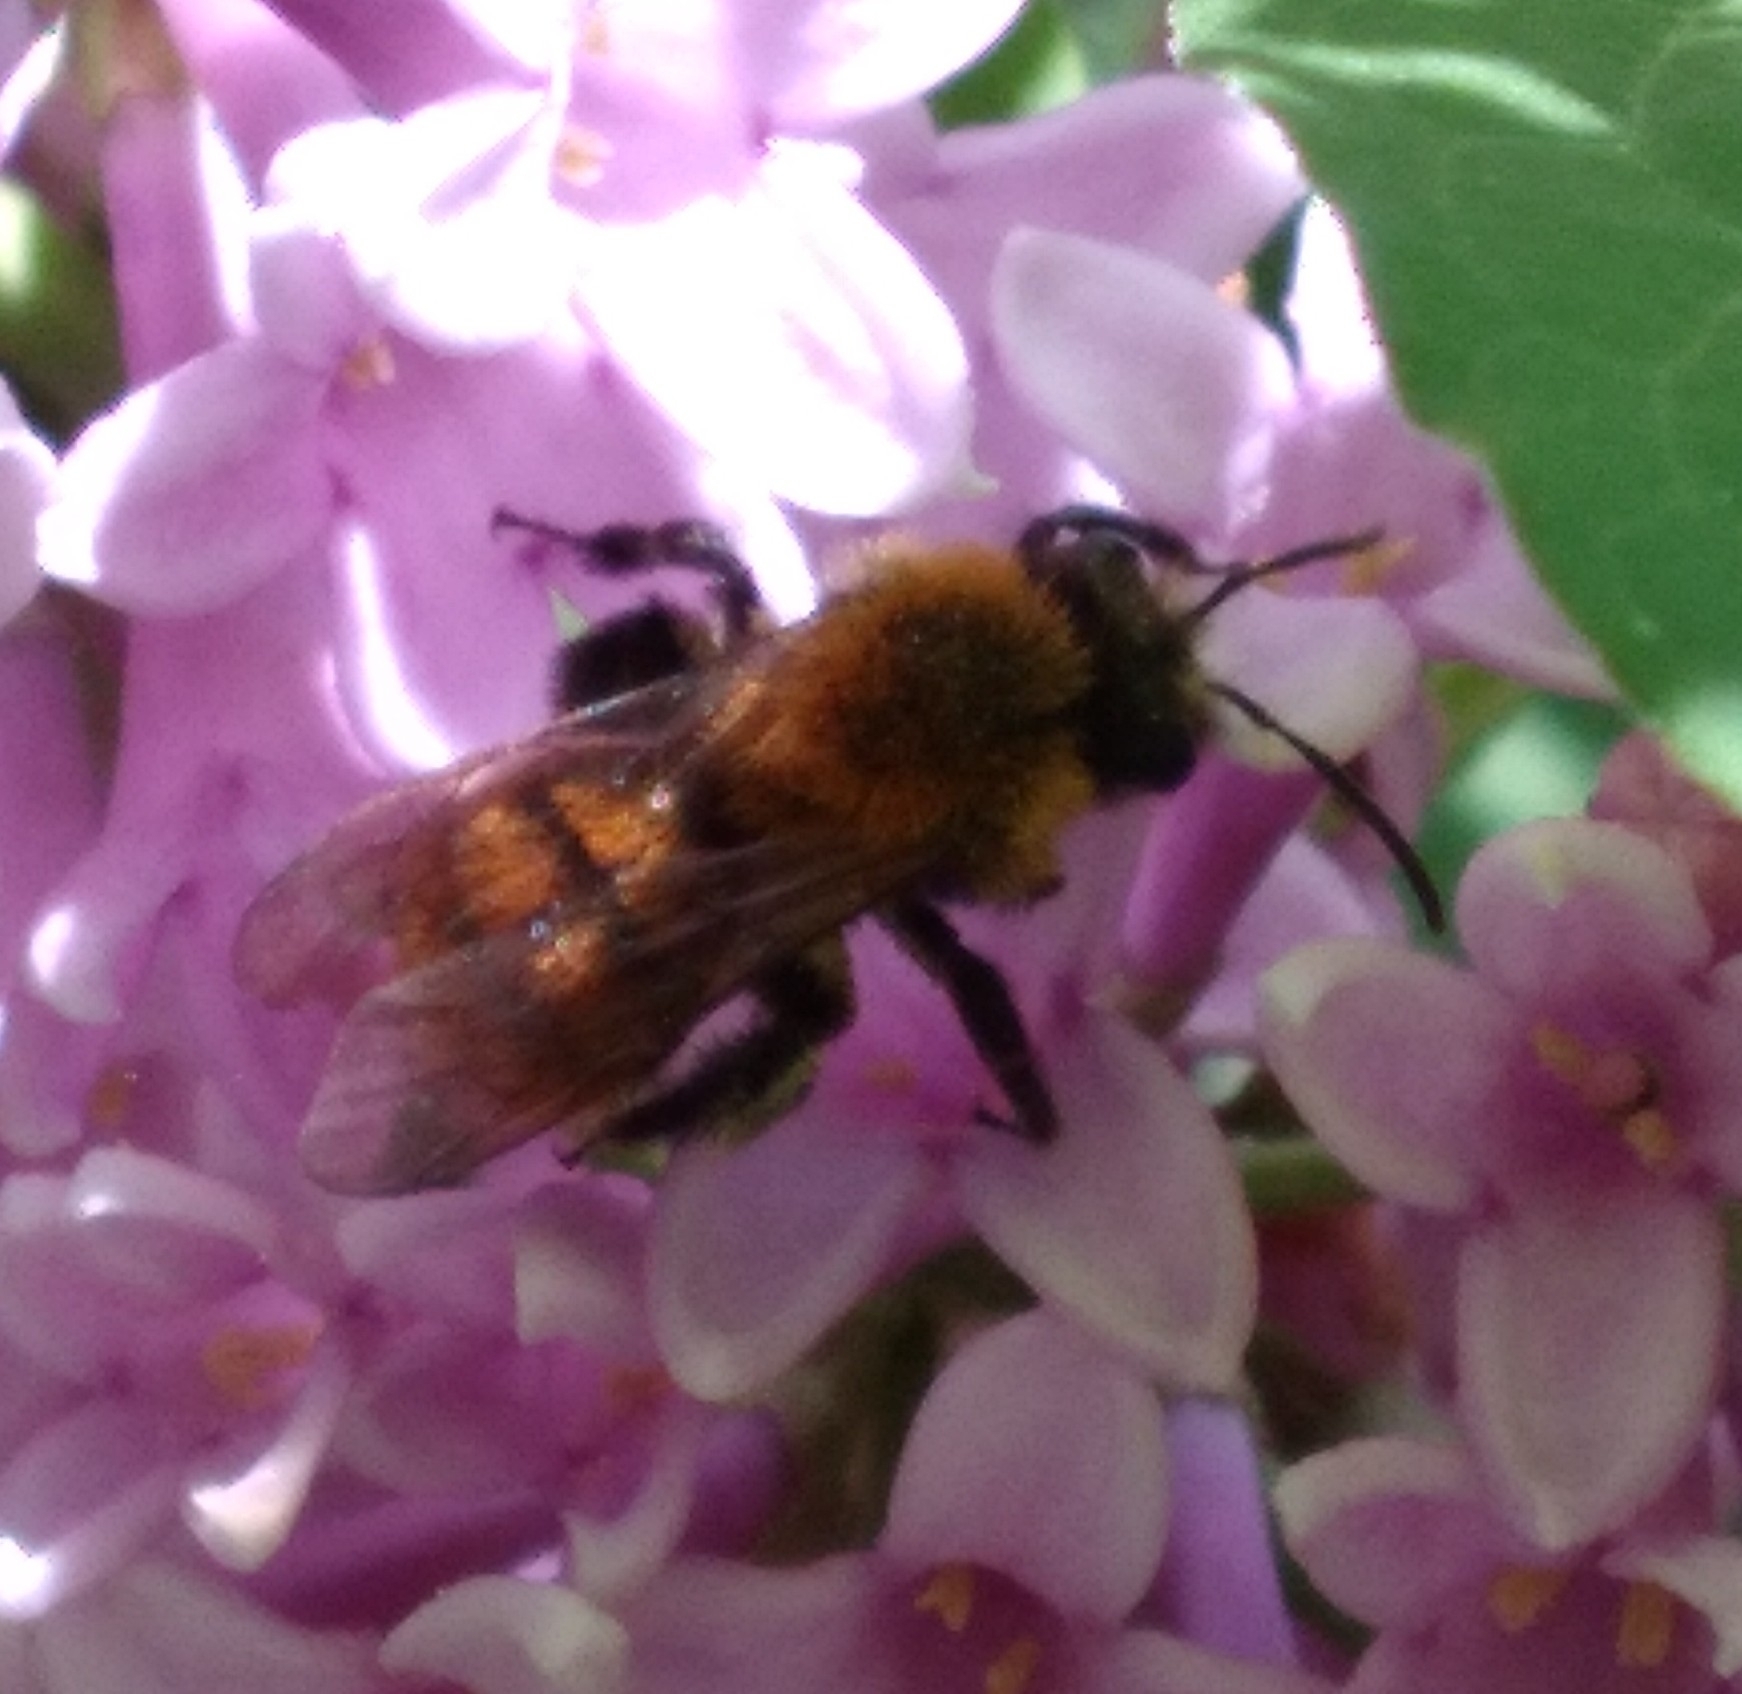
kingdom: Animalia
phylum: Arthropoda
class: Insecta
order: Hymenoptera
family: Andrenidae
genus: Andrena
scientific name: Andrena milwaukeensis
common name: Milwaukee mining bee
